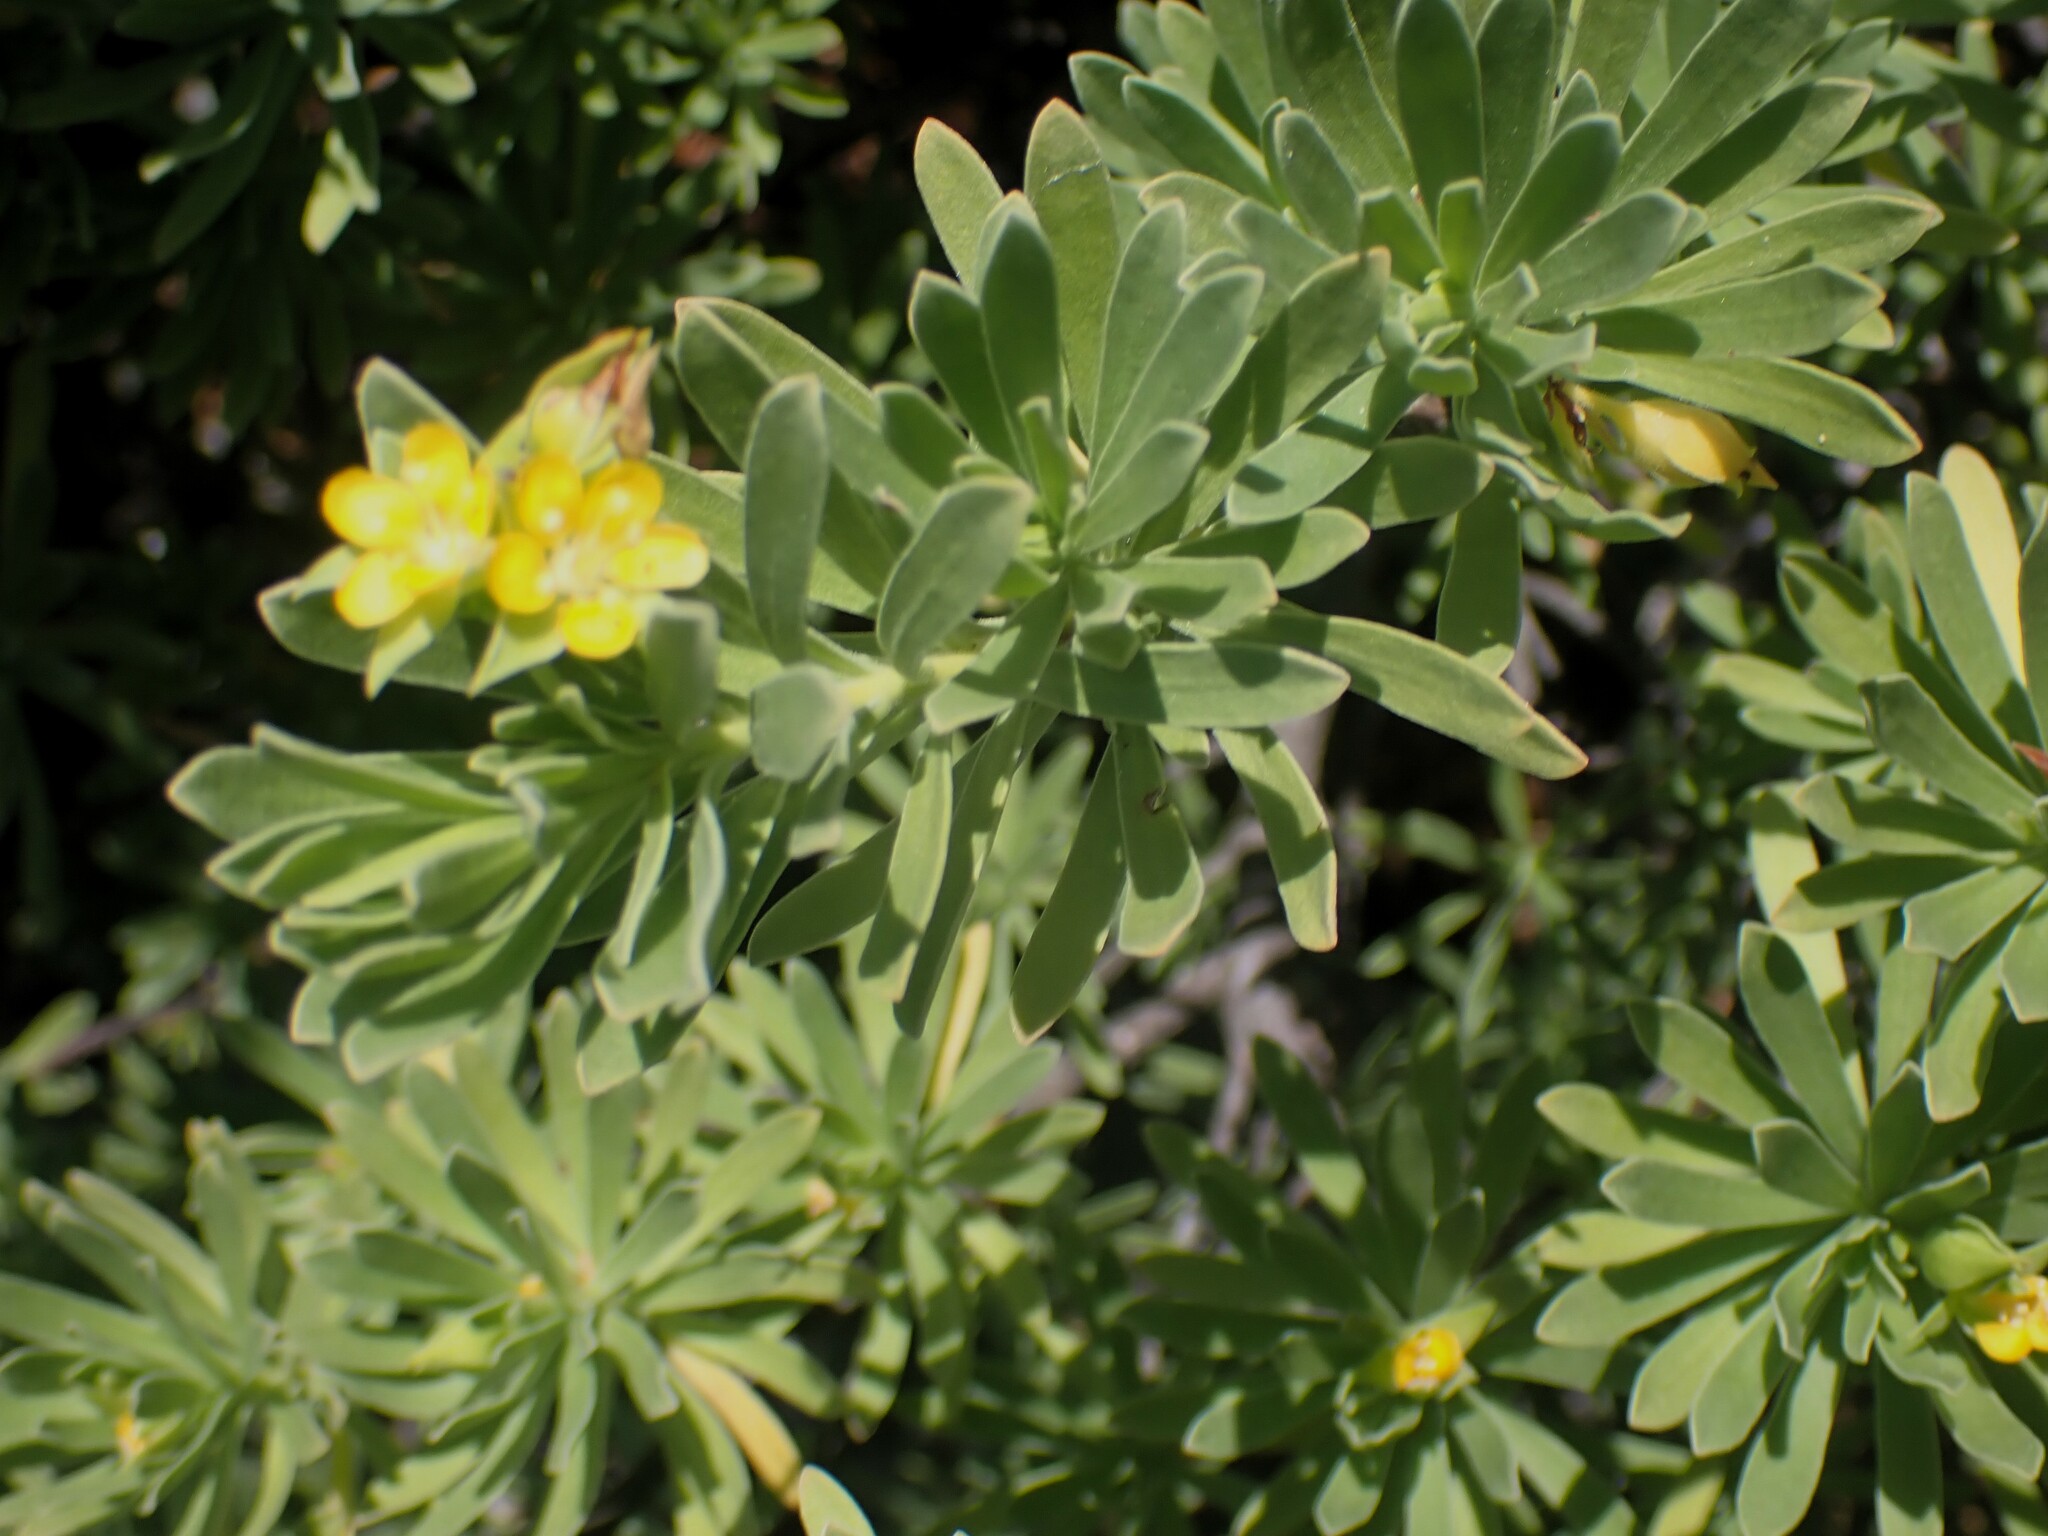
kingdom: Plantae
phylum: Tracheophyta
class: Magnoliopsida
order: Fabales
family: Surianaceae
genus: Suriana
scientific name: Suriana maritima
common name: Bay-cedar
